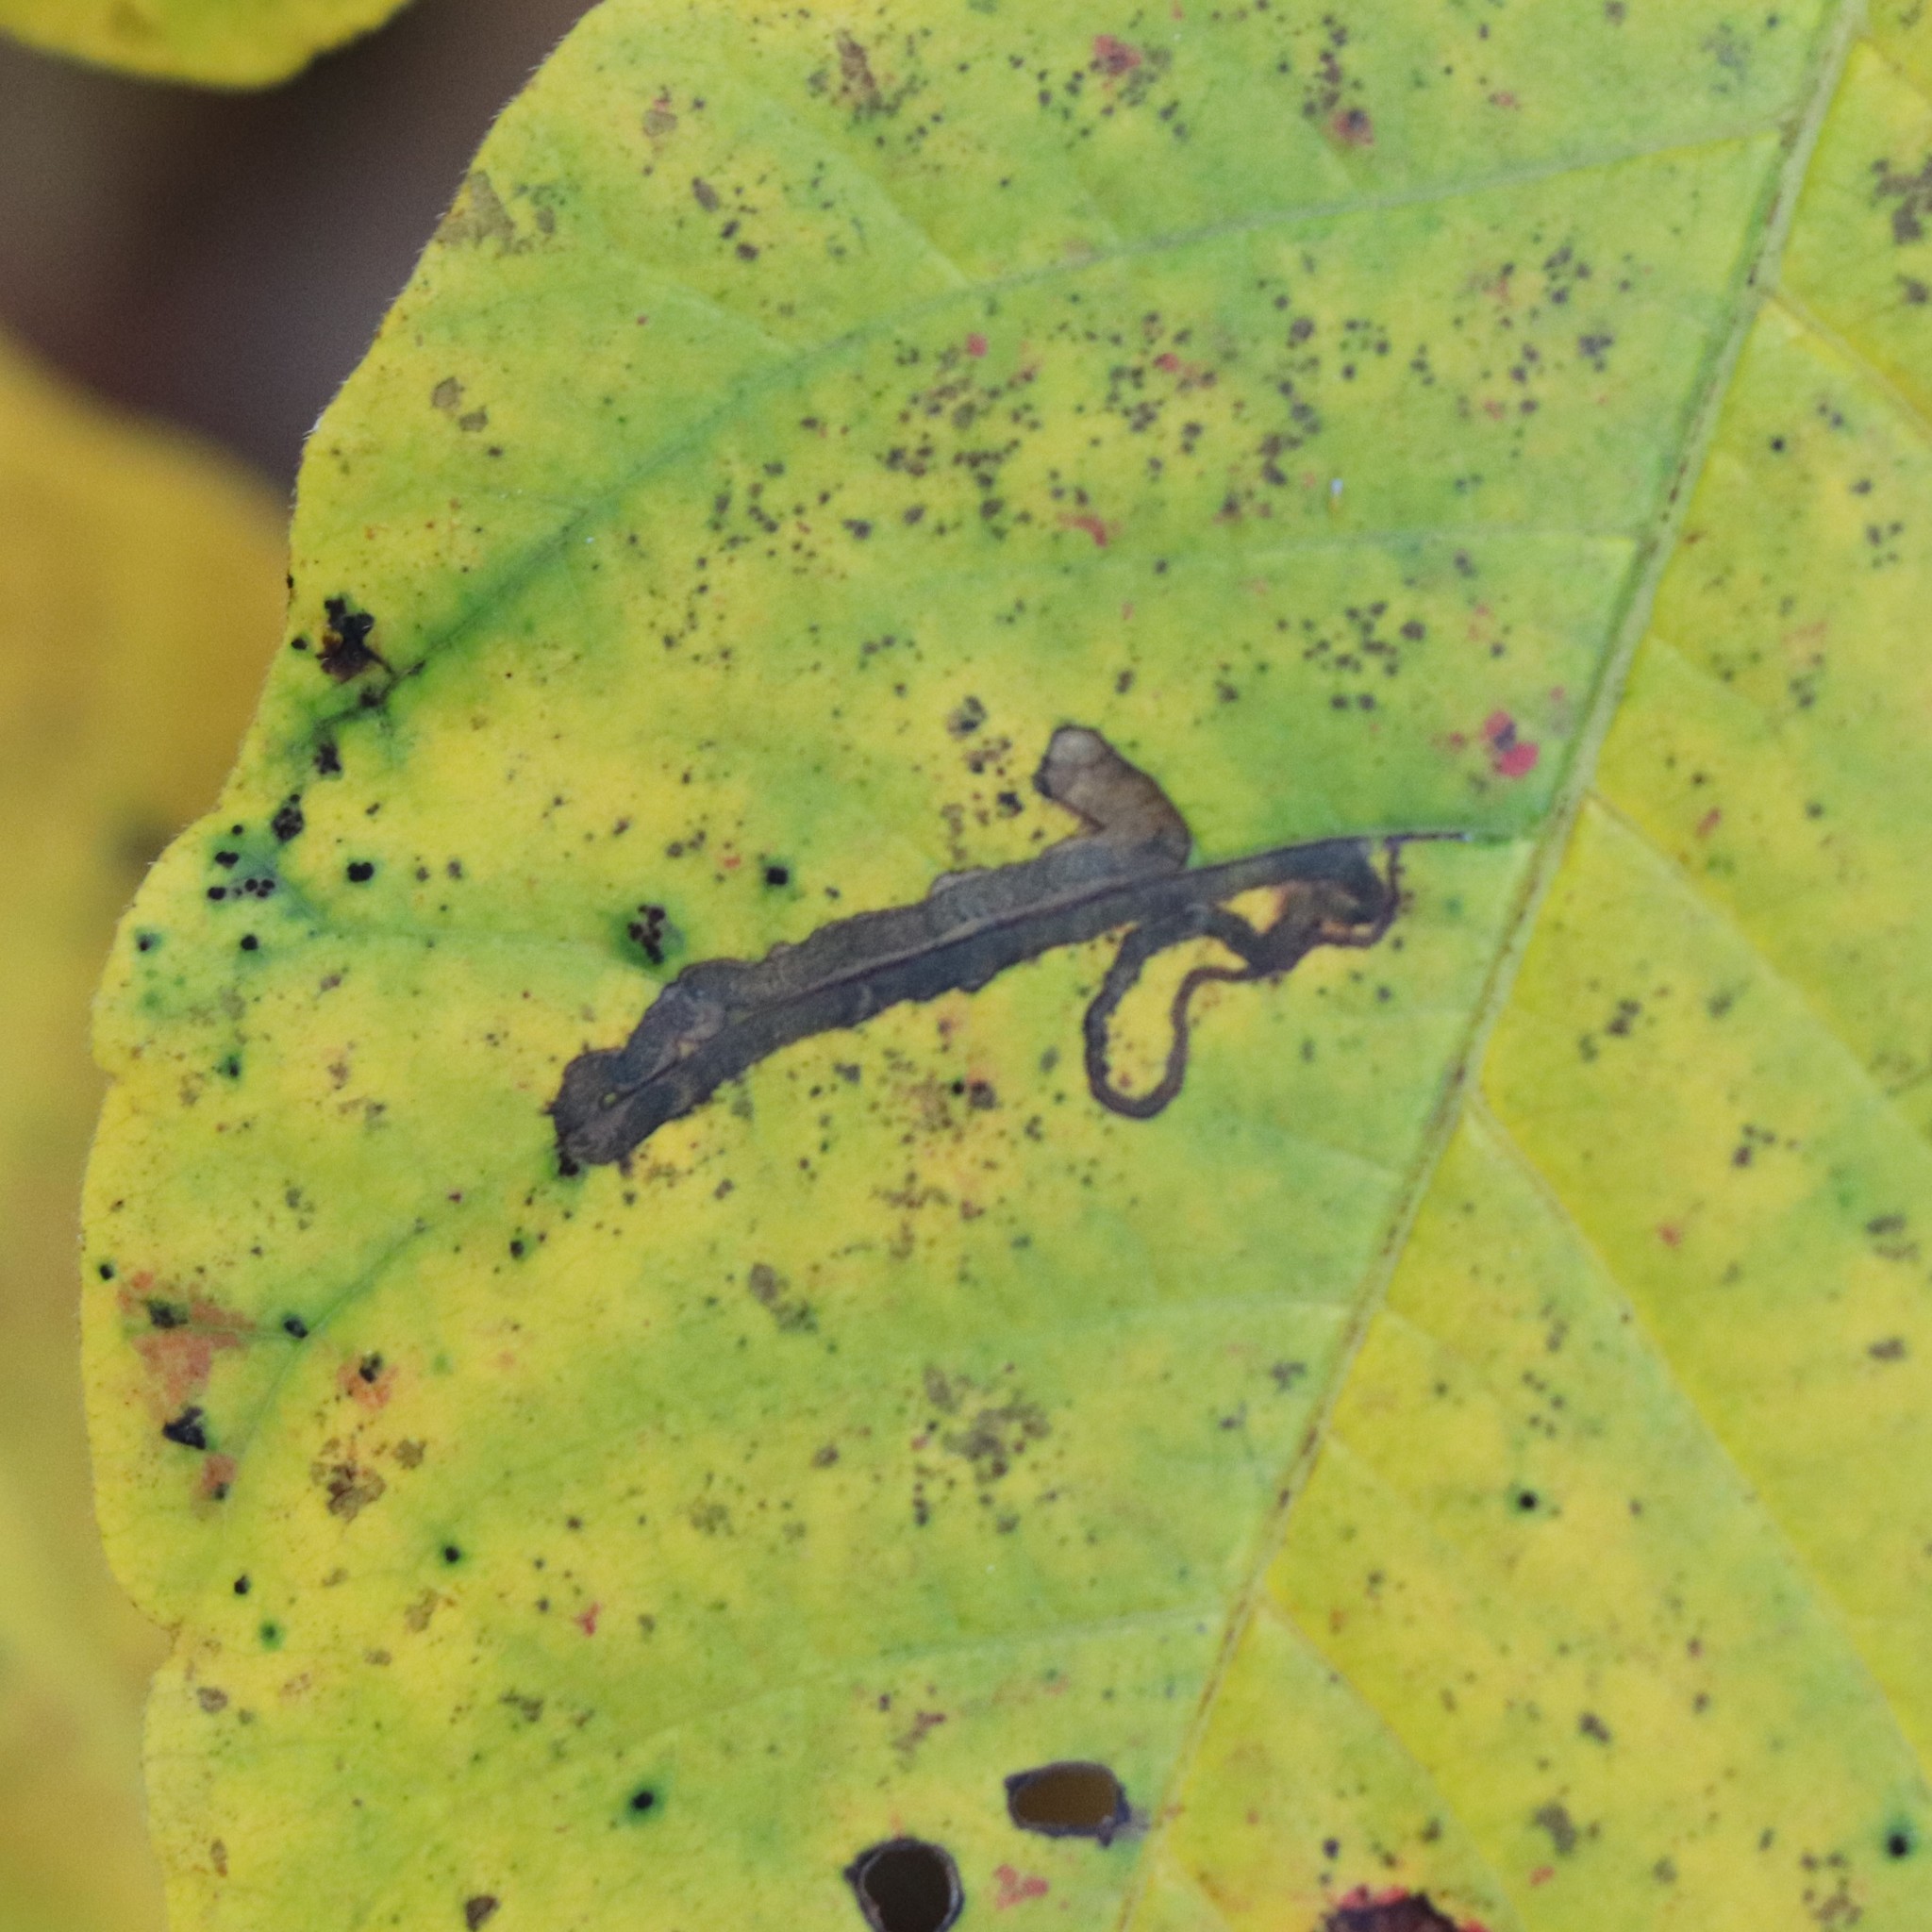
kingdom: Animalia
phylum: Arthropoda
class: Insecta
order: Lepidoptera
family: Nepticulidae
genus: Stigmella
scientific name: Stigmella rhoifoliella
